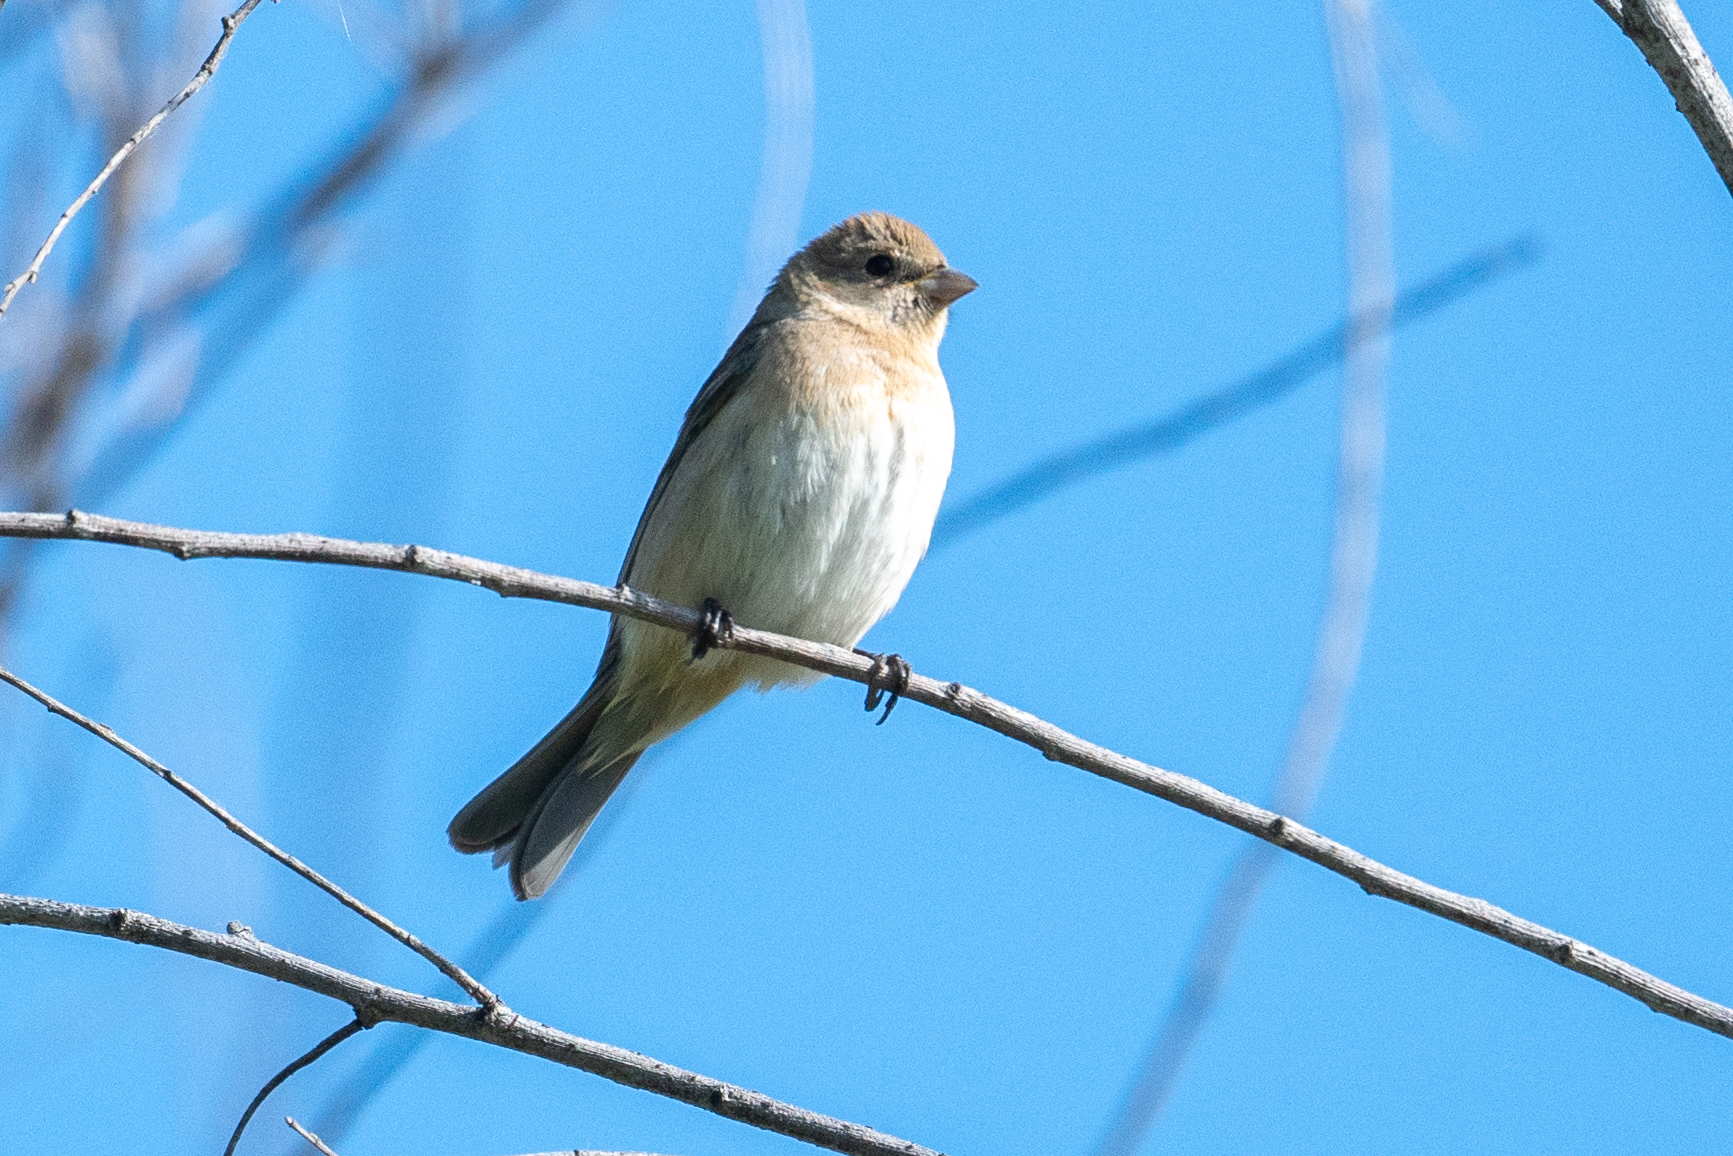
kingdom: Animalia
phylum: Chordata
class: Aves
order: Passeriformes
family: Cardinalidae
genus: Passerina
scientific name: Passerina amoena
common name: Lazuli bunting
